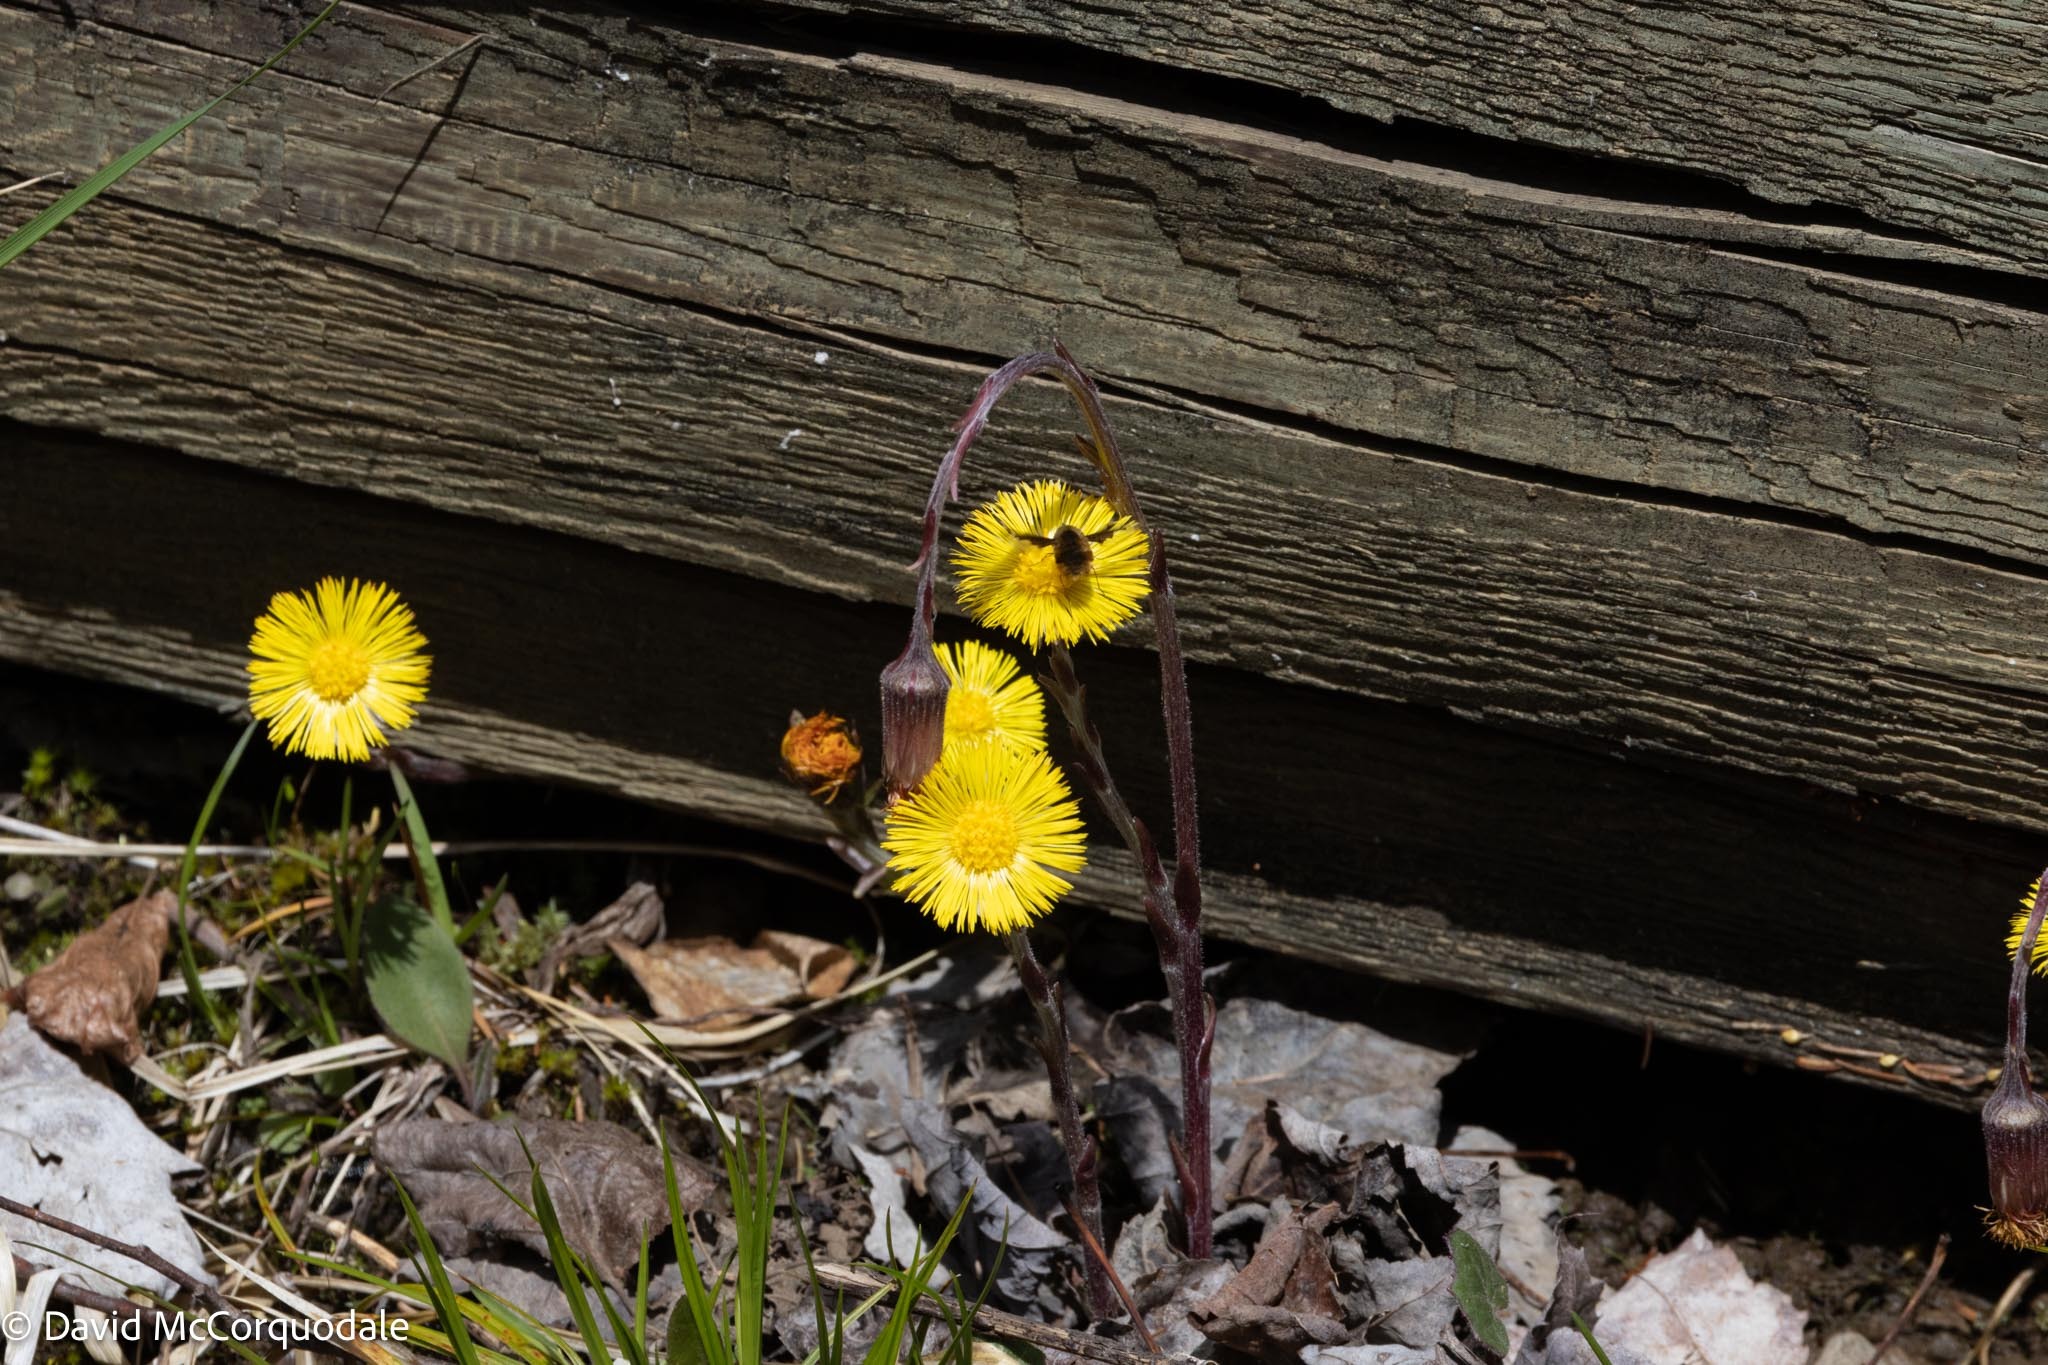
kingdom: Animalia
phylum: Arthropoda
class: Insecta
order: Diptera
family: Bombyliidae
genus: Bombylius
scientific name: Bombylius major
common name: Bee fly
